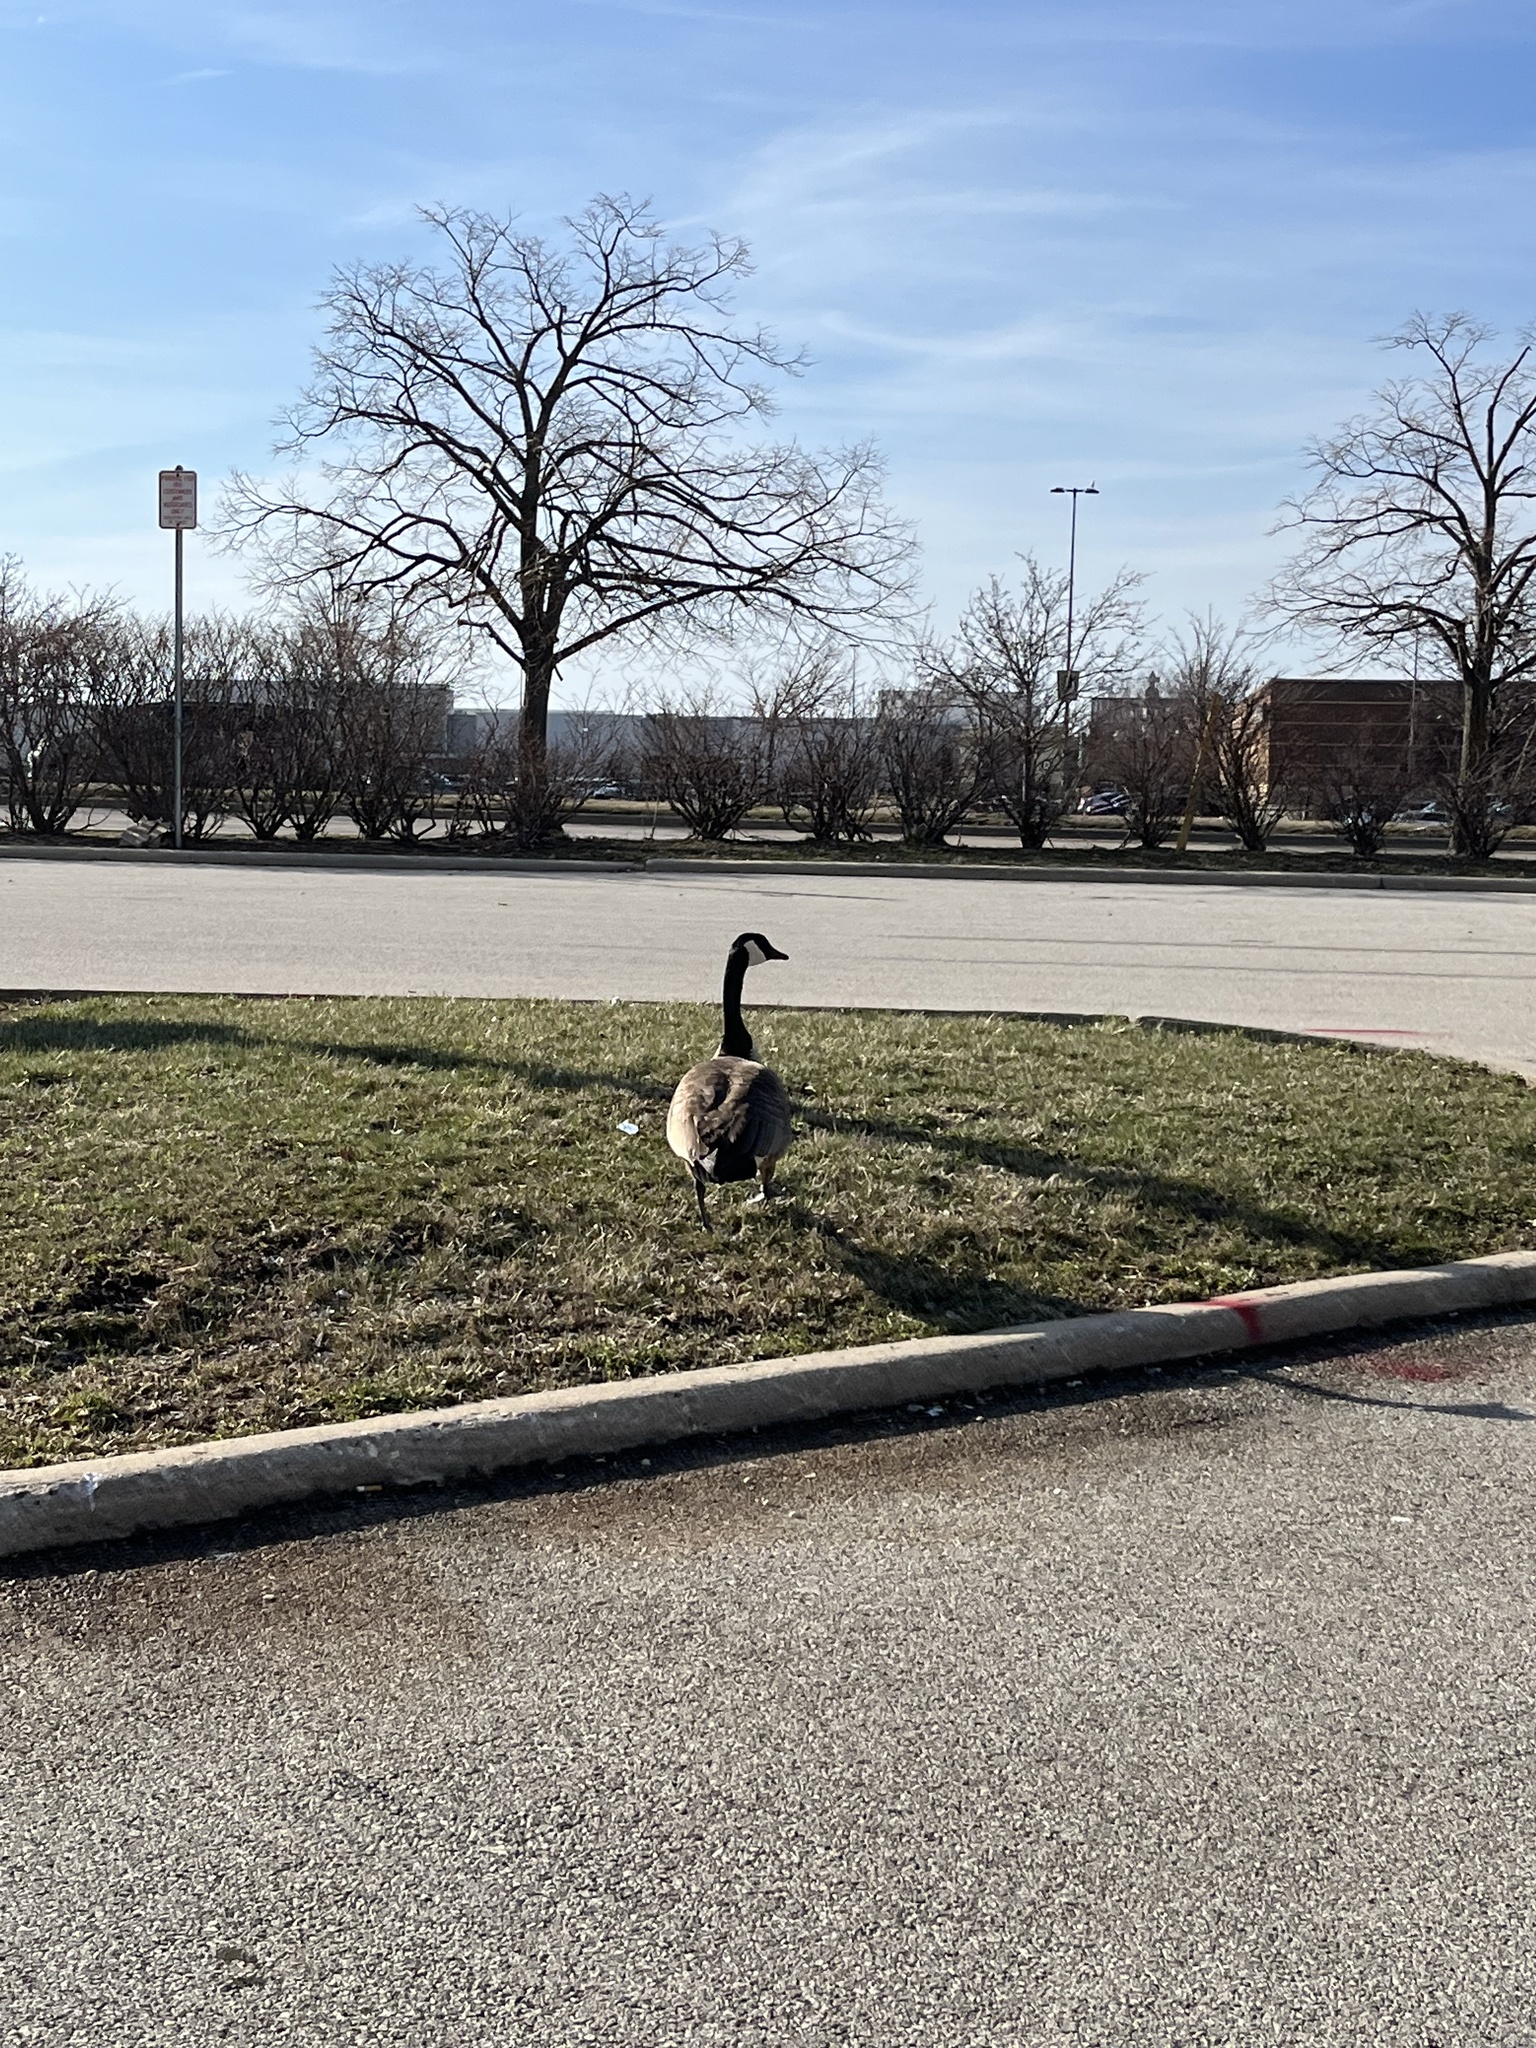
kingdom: Animalia
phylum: Chordata
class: Aves
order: Anseriformes
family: Anatidae
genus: Branta
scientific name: Branta canadensis
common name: Canada goose
